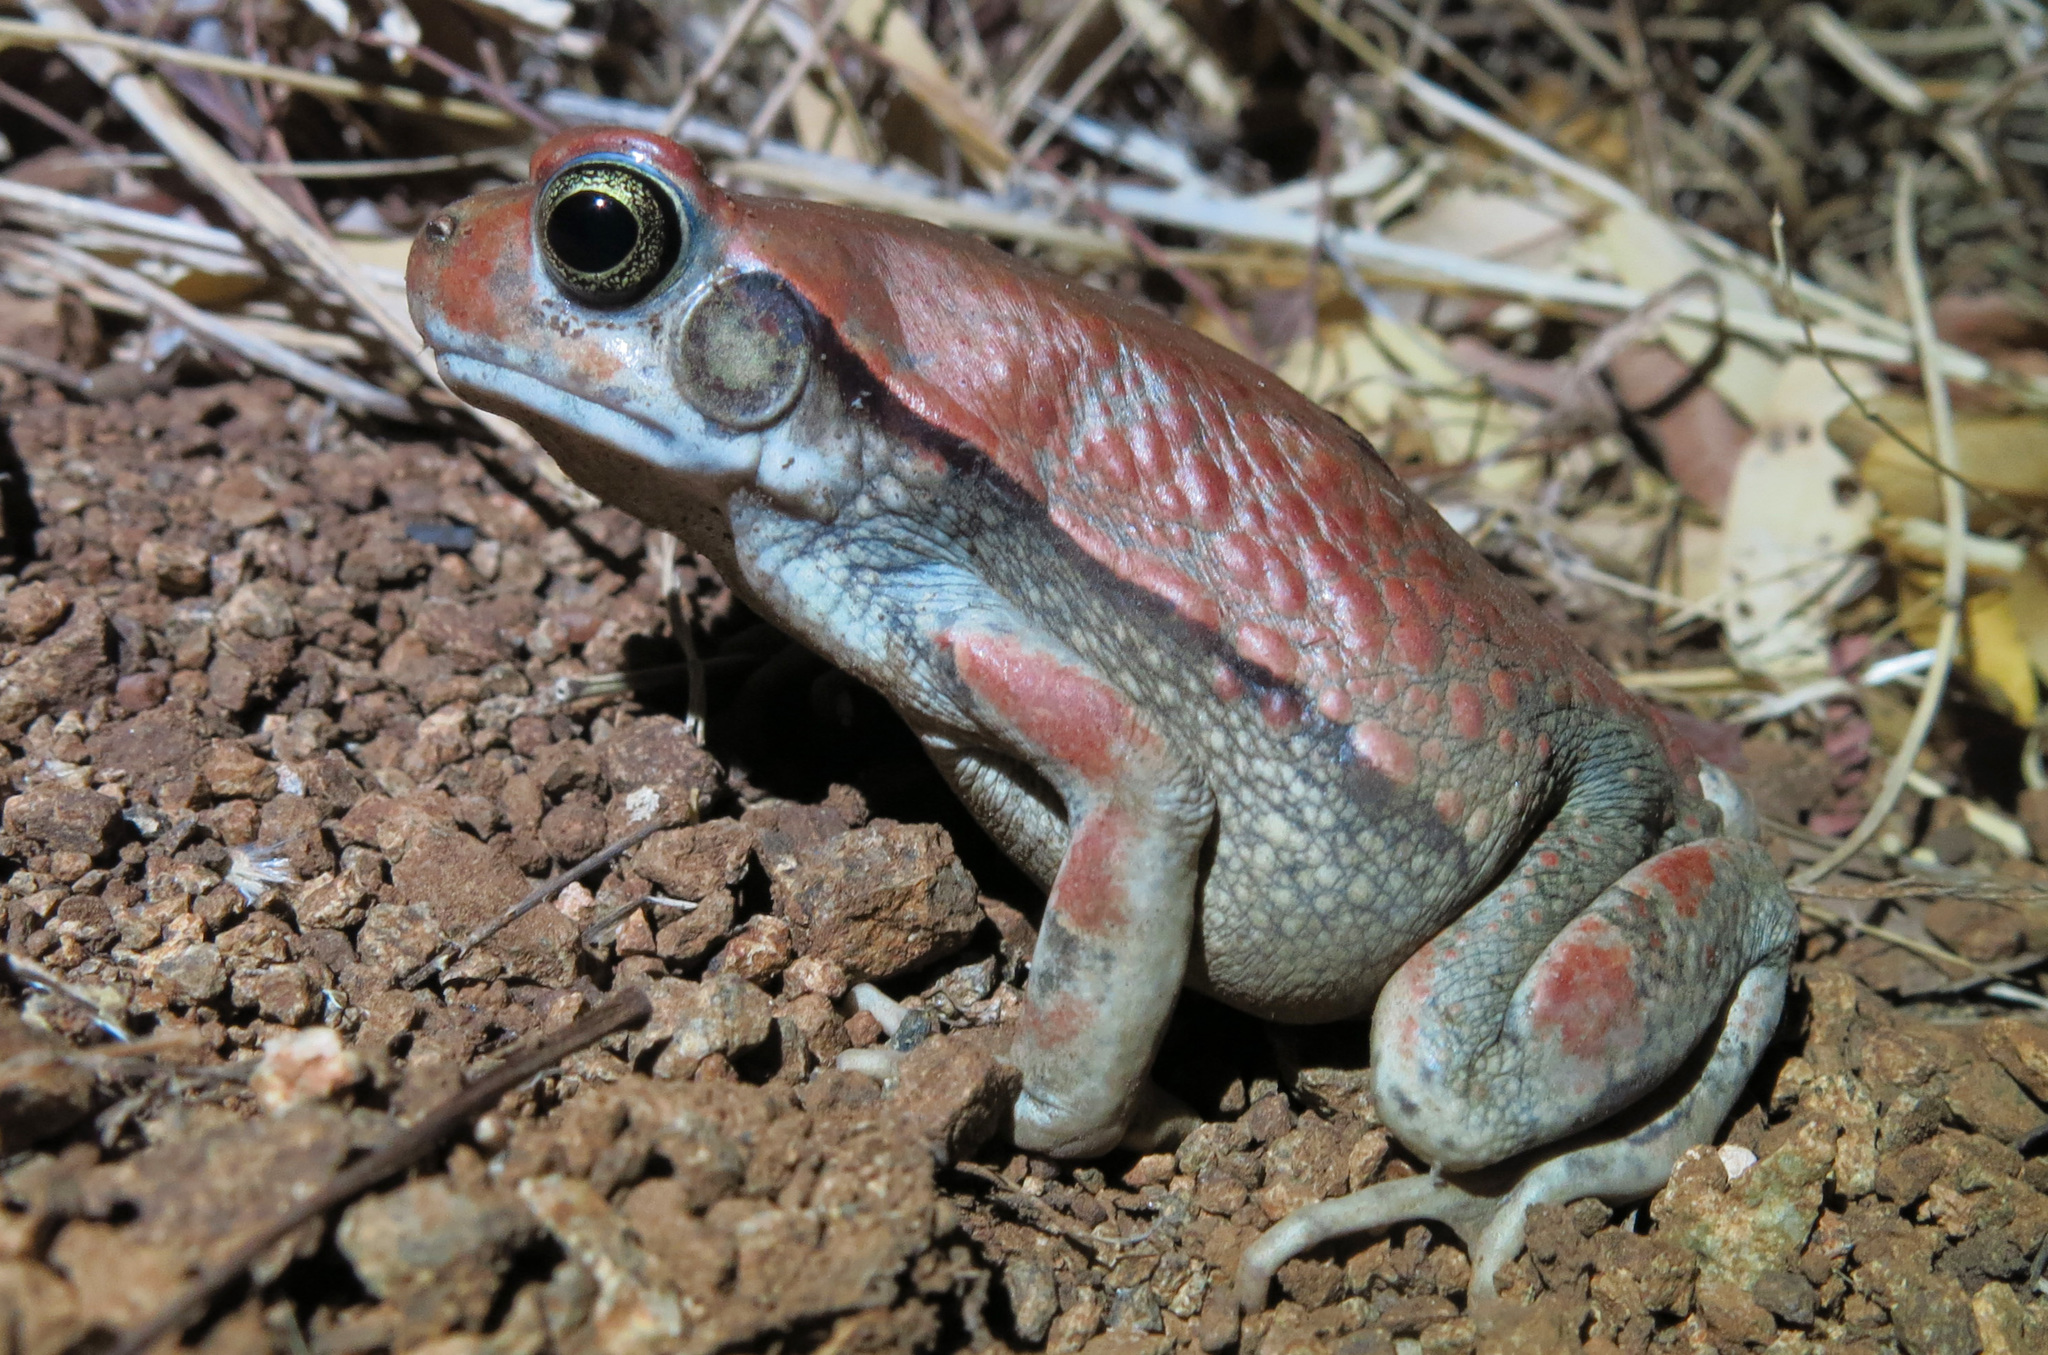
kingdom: Animalia
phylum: Chordata
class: Amphibia
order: Anura
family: Bufonidae
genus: Schismaderma
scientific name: Schismaderma carens
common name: African split-skin toad
